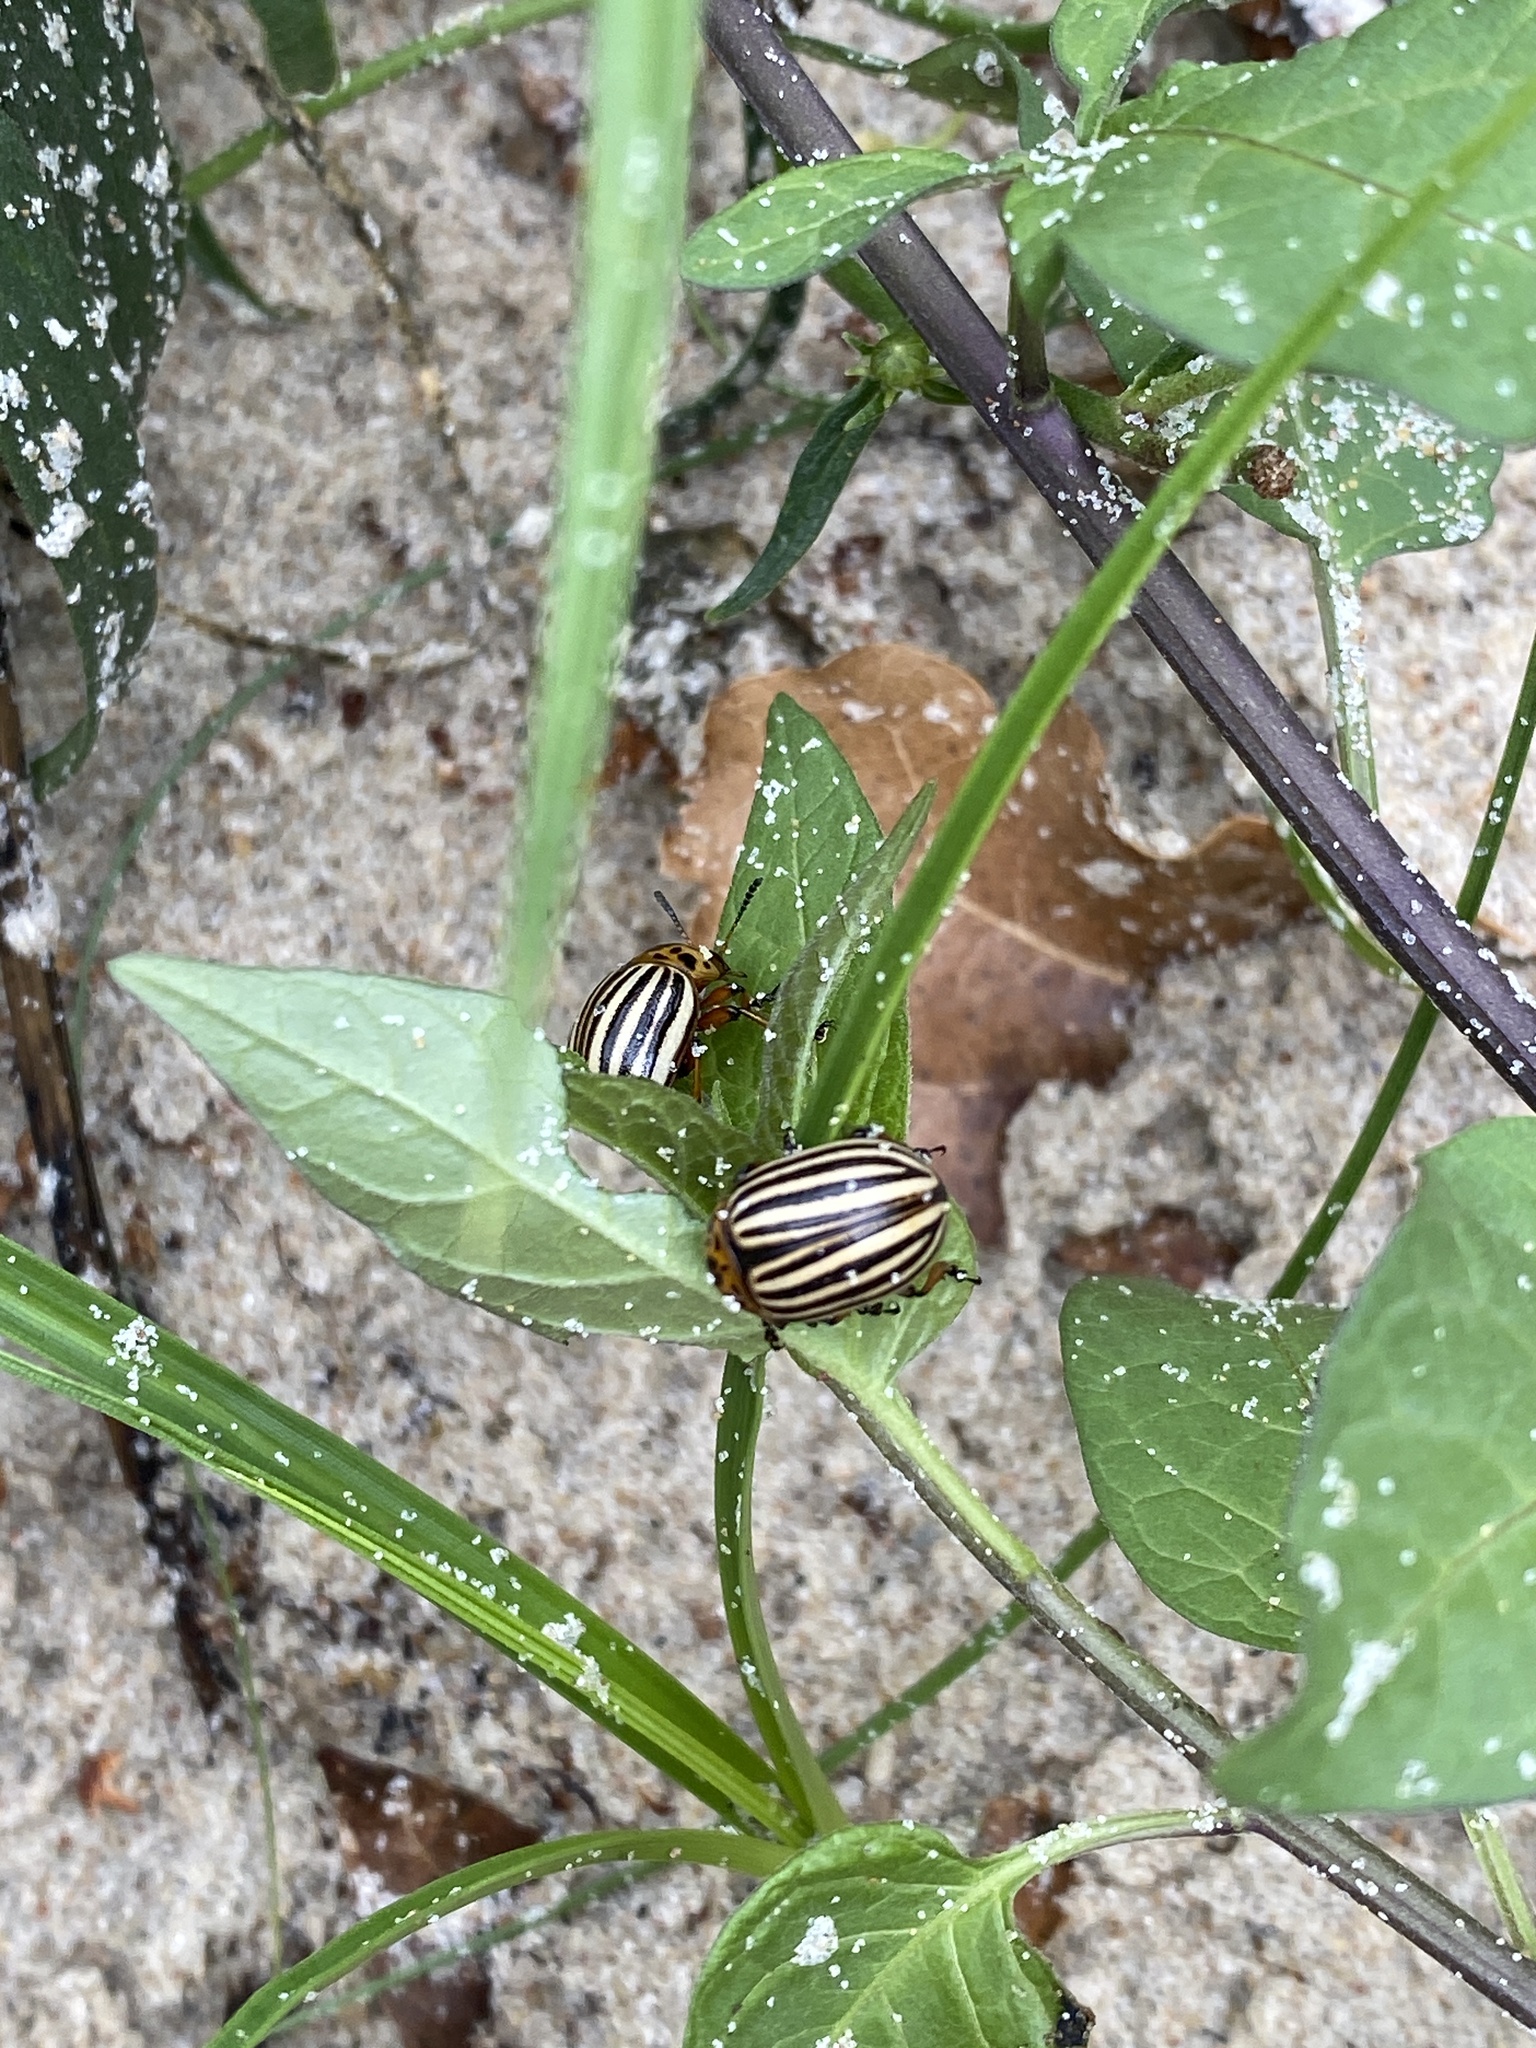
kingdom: Animalia
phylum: Arthropoda
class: Insecta
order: Coleoptera
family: Chrysomelidae
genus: Leptinotarsa
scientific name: Leptinotarsa decemlineata
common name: Colorado potato beetle
